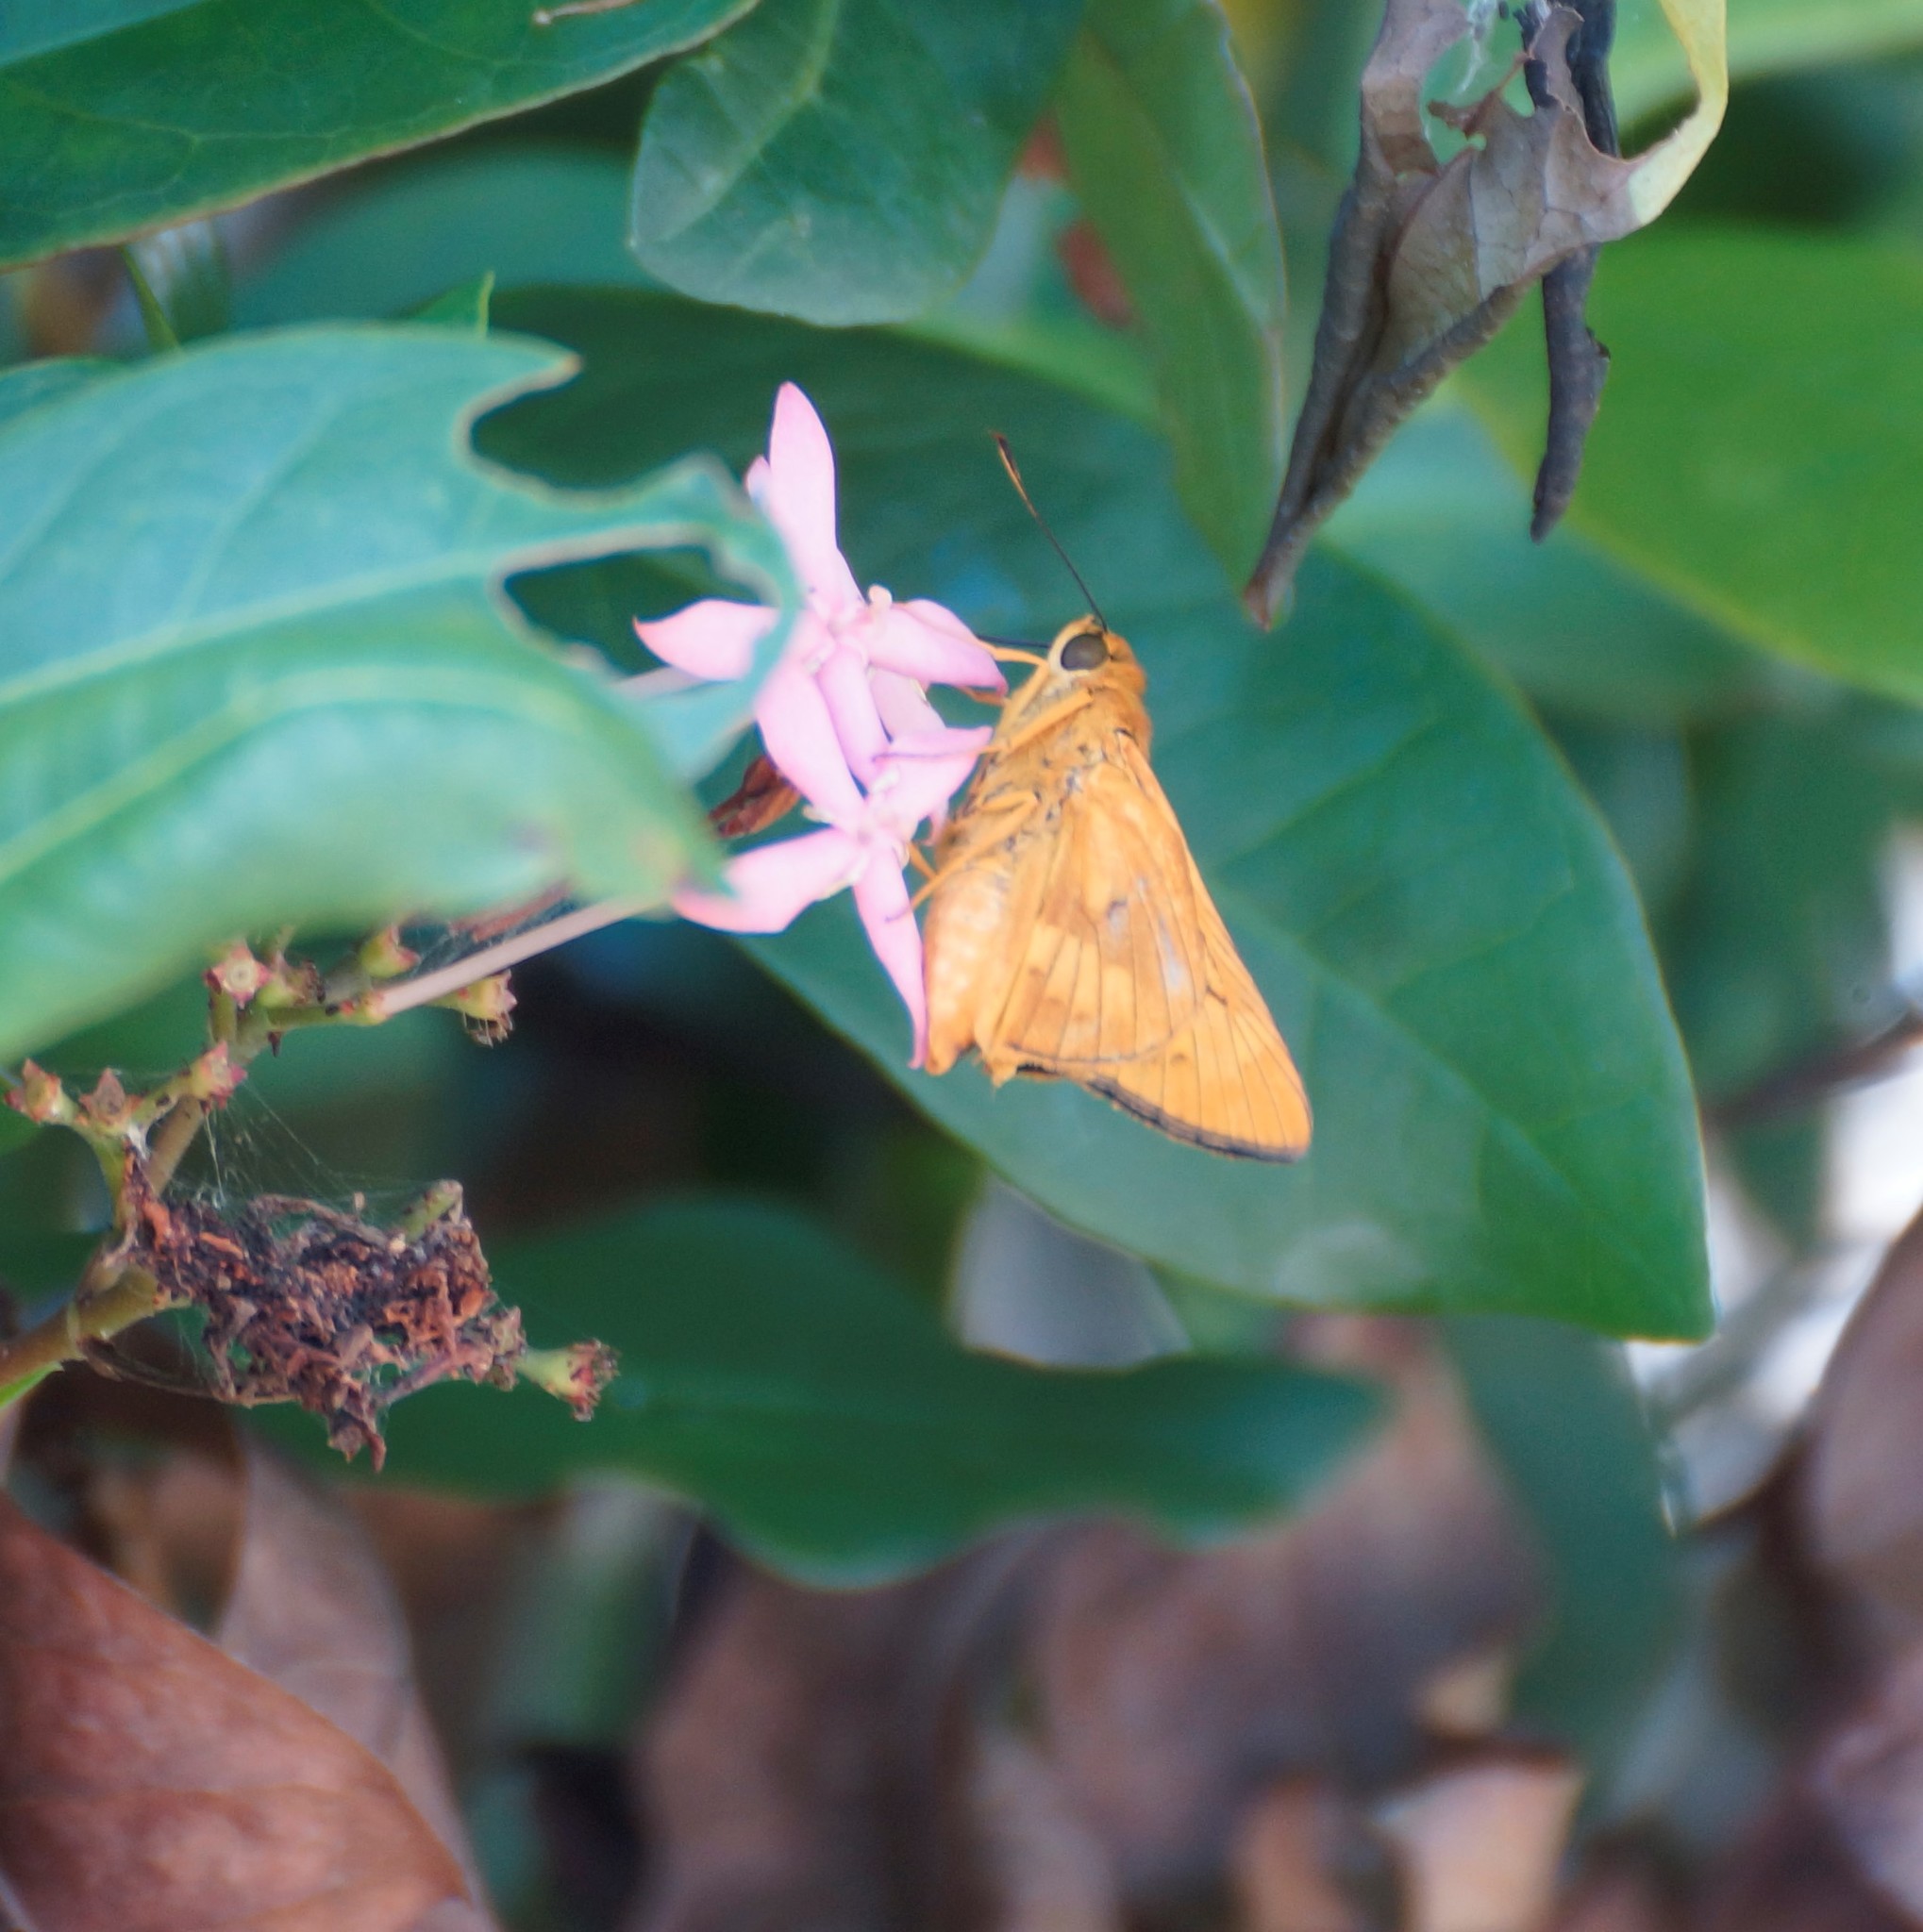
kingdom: Animalia
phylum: Arthropoda
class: Insecta
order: Lepidoptera
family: Hesperiidae
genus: Cephrenes
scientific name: Cephrenes augiades
